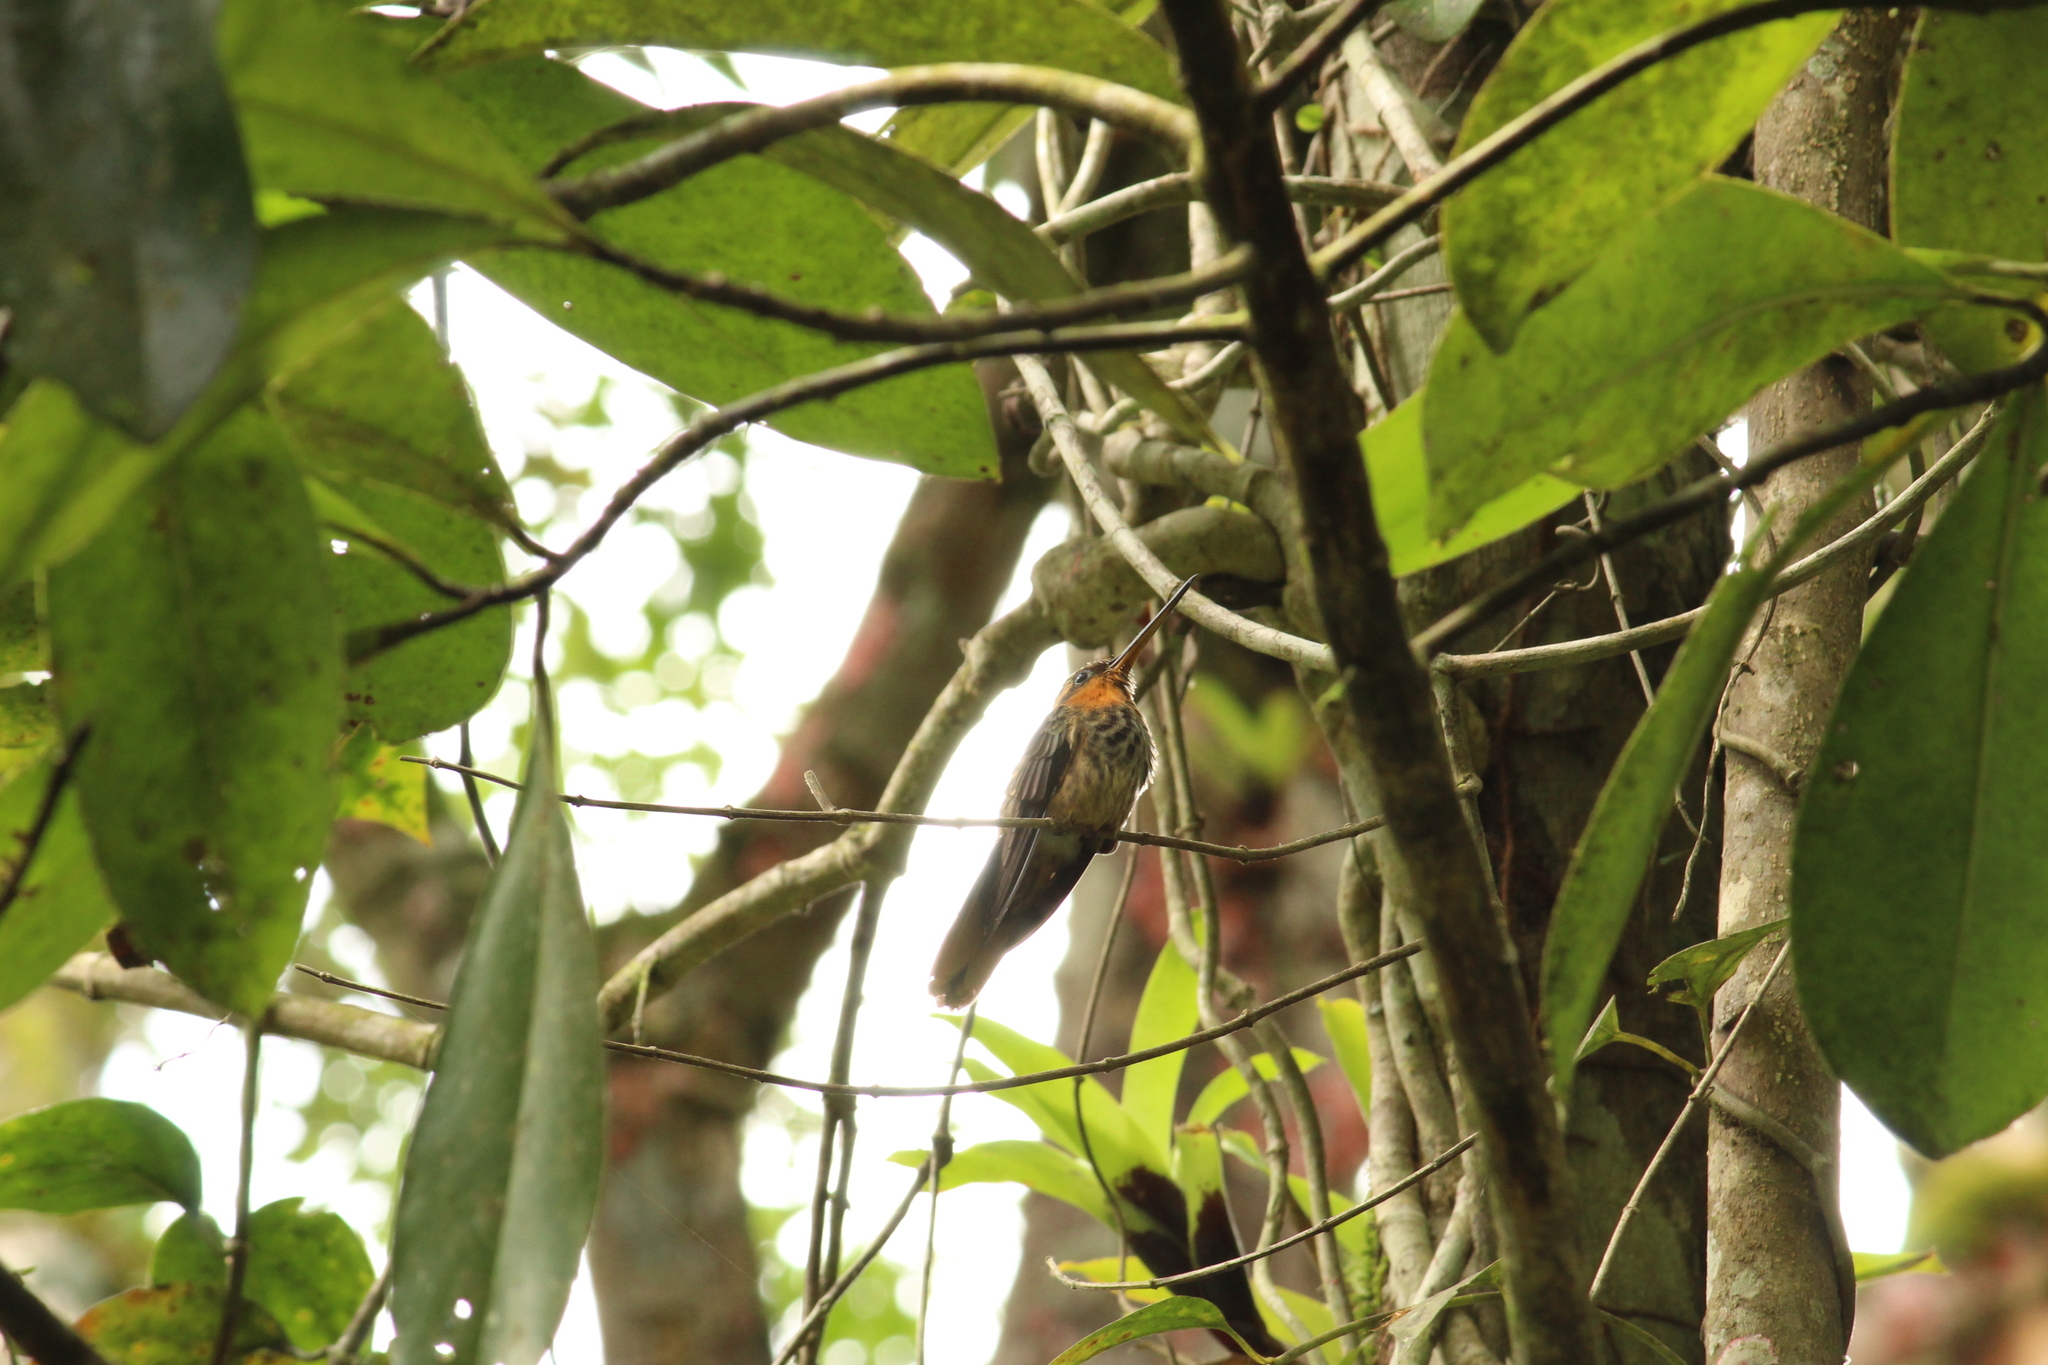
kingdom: Animalia
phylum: Chordata
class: Aves
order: Apodiformes
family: Trochilidae
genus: Ramphodon
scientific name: Ramphodon naevius
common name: Saw-billed hermit
